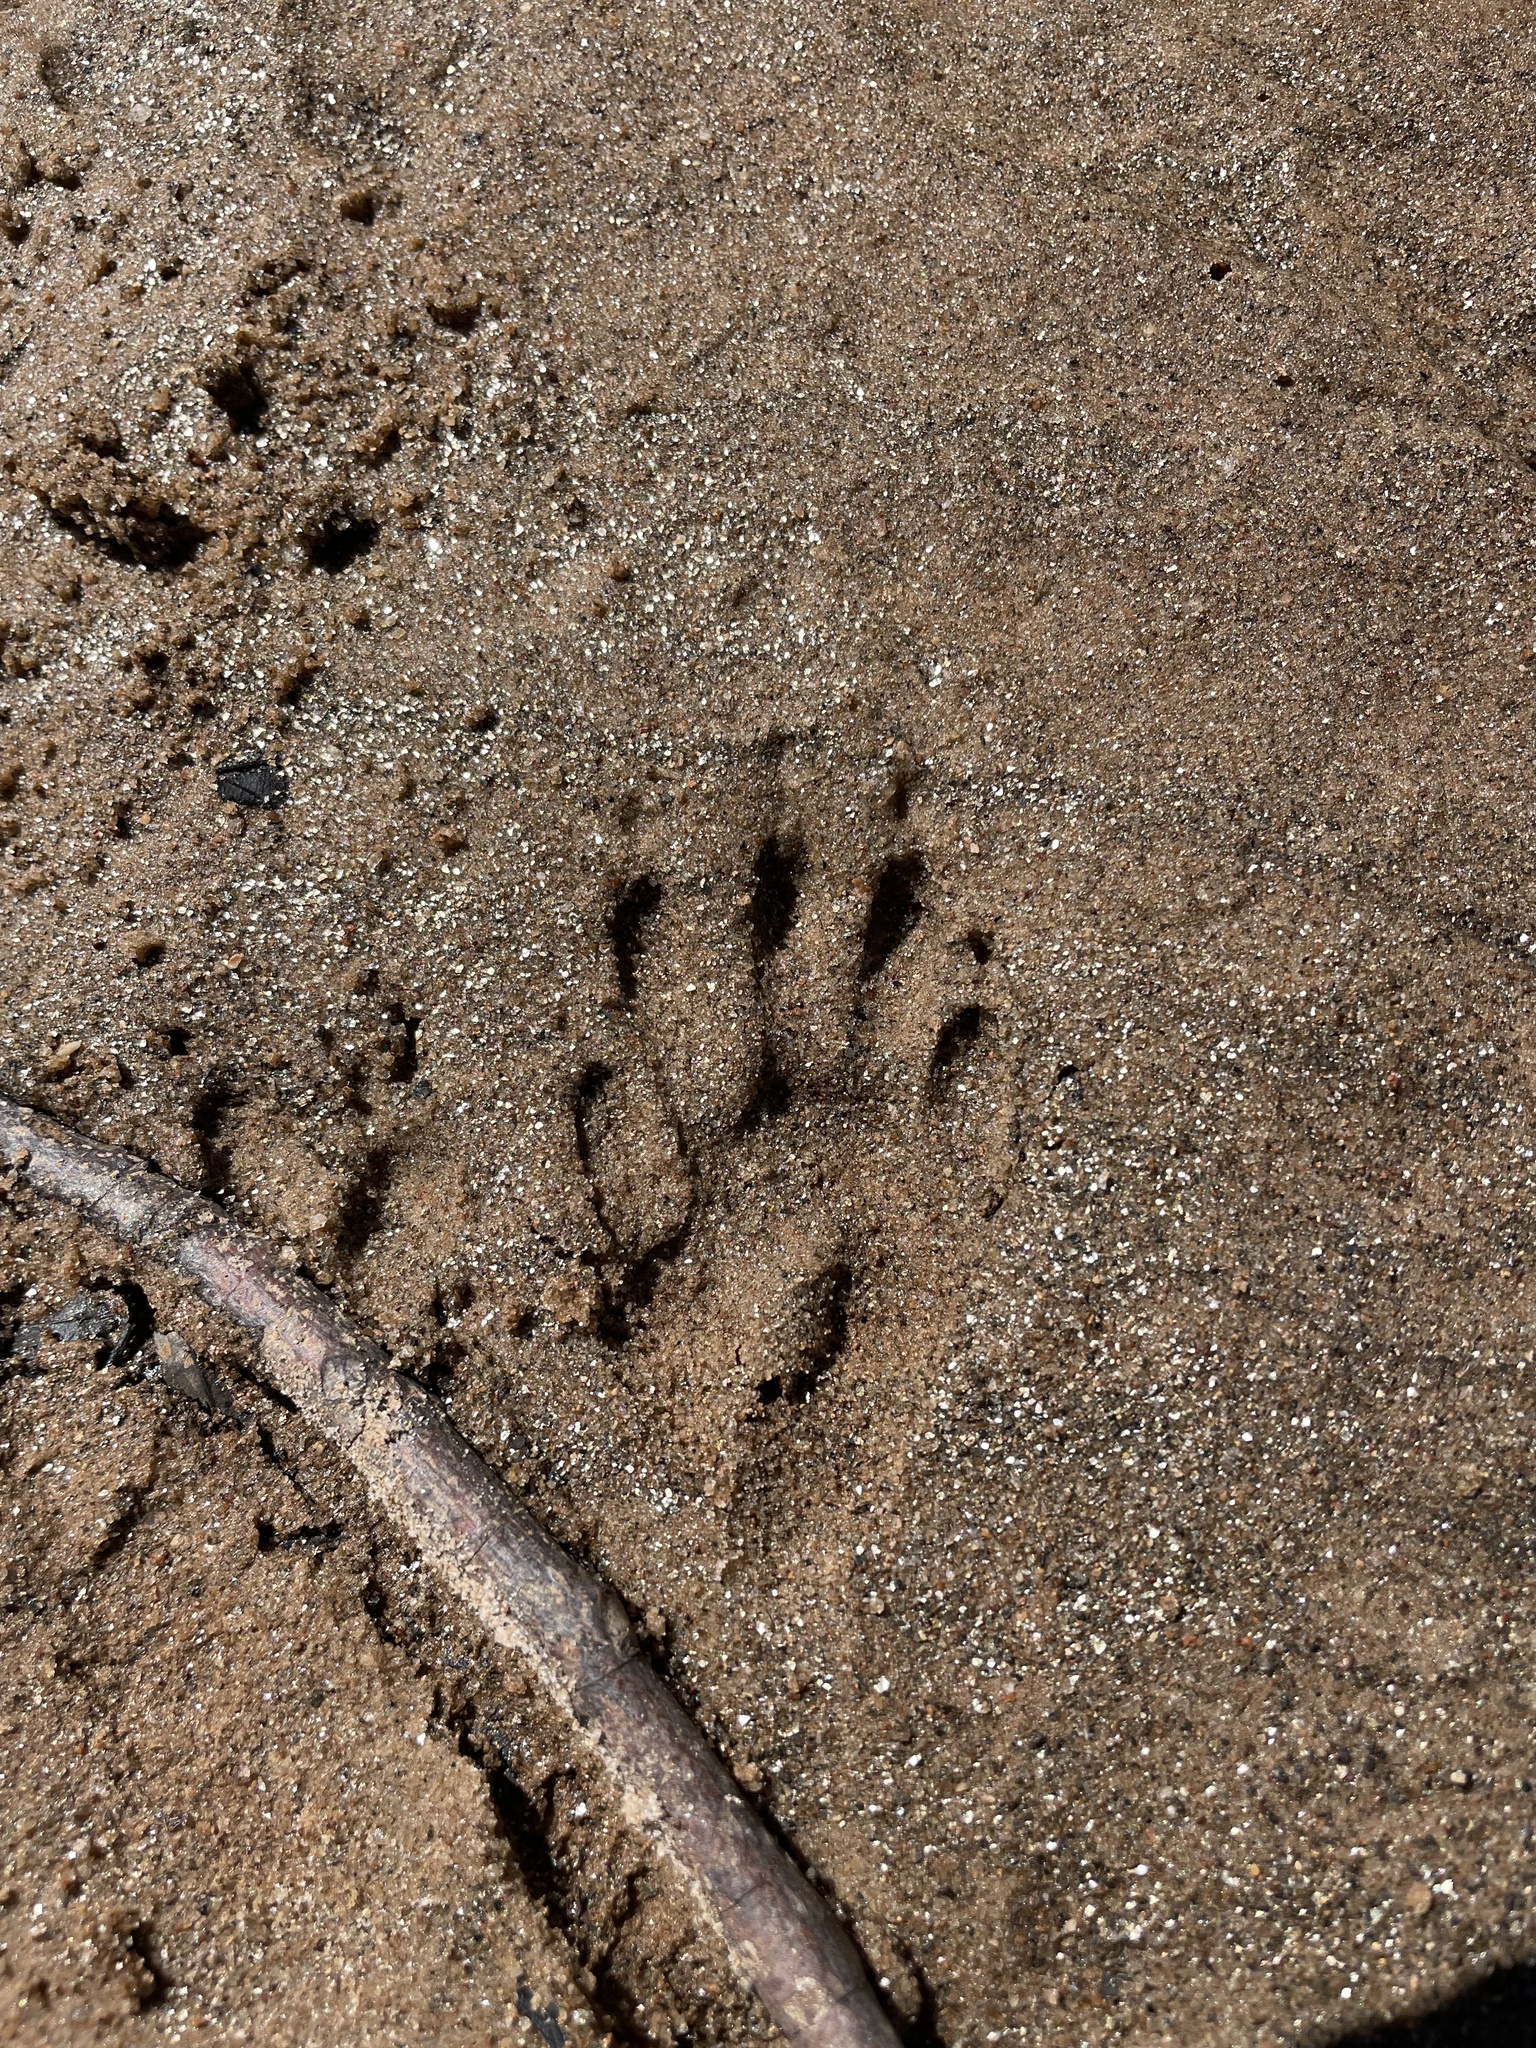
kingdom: Animalia
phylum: Chordata
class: Mammalia
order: Carnivora
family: Procyonidae
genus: Procyon
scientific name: Procyon lotor
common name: Raccoon
